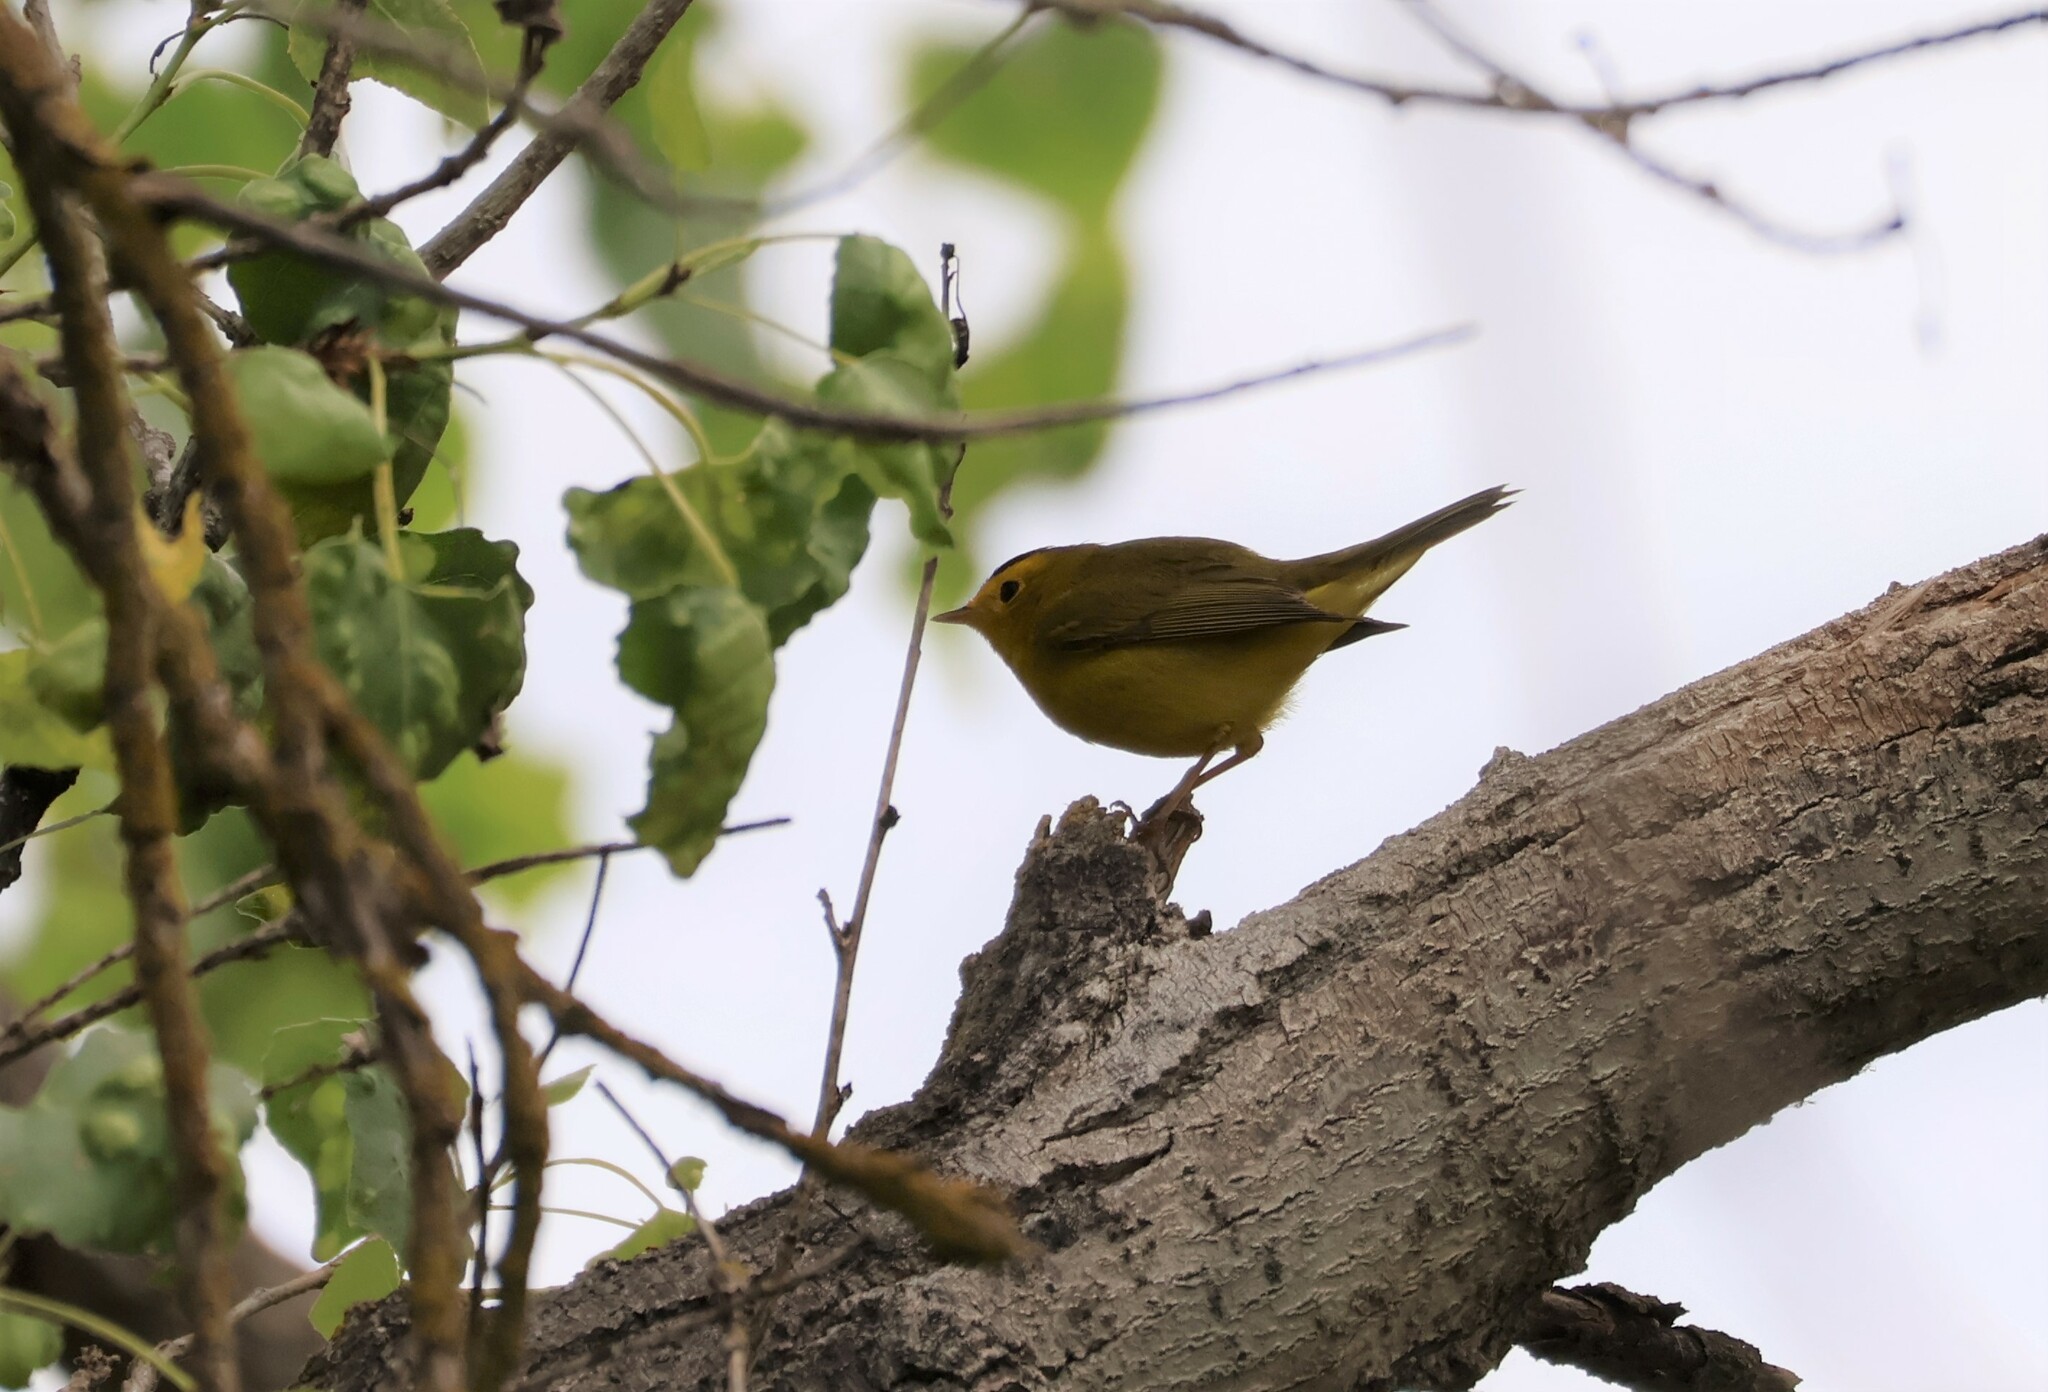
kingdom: Animalia
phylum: Chordata
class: Aves
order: Passeriformes
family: Parulidae
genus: Cardellina
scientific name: Cardellina pusilla
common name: Wilson's warbler
